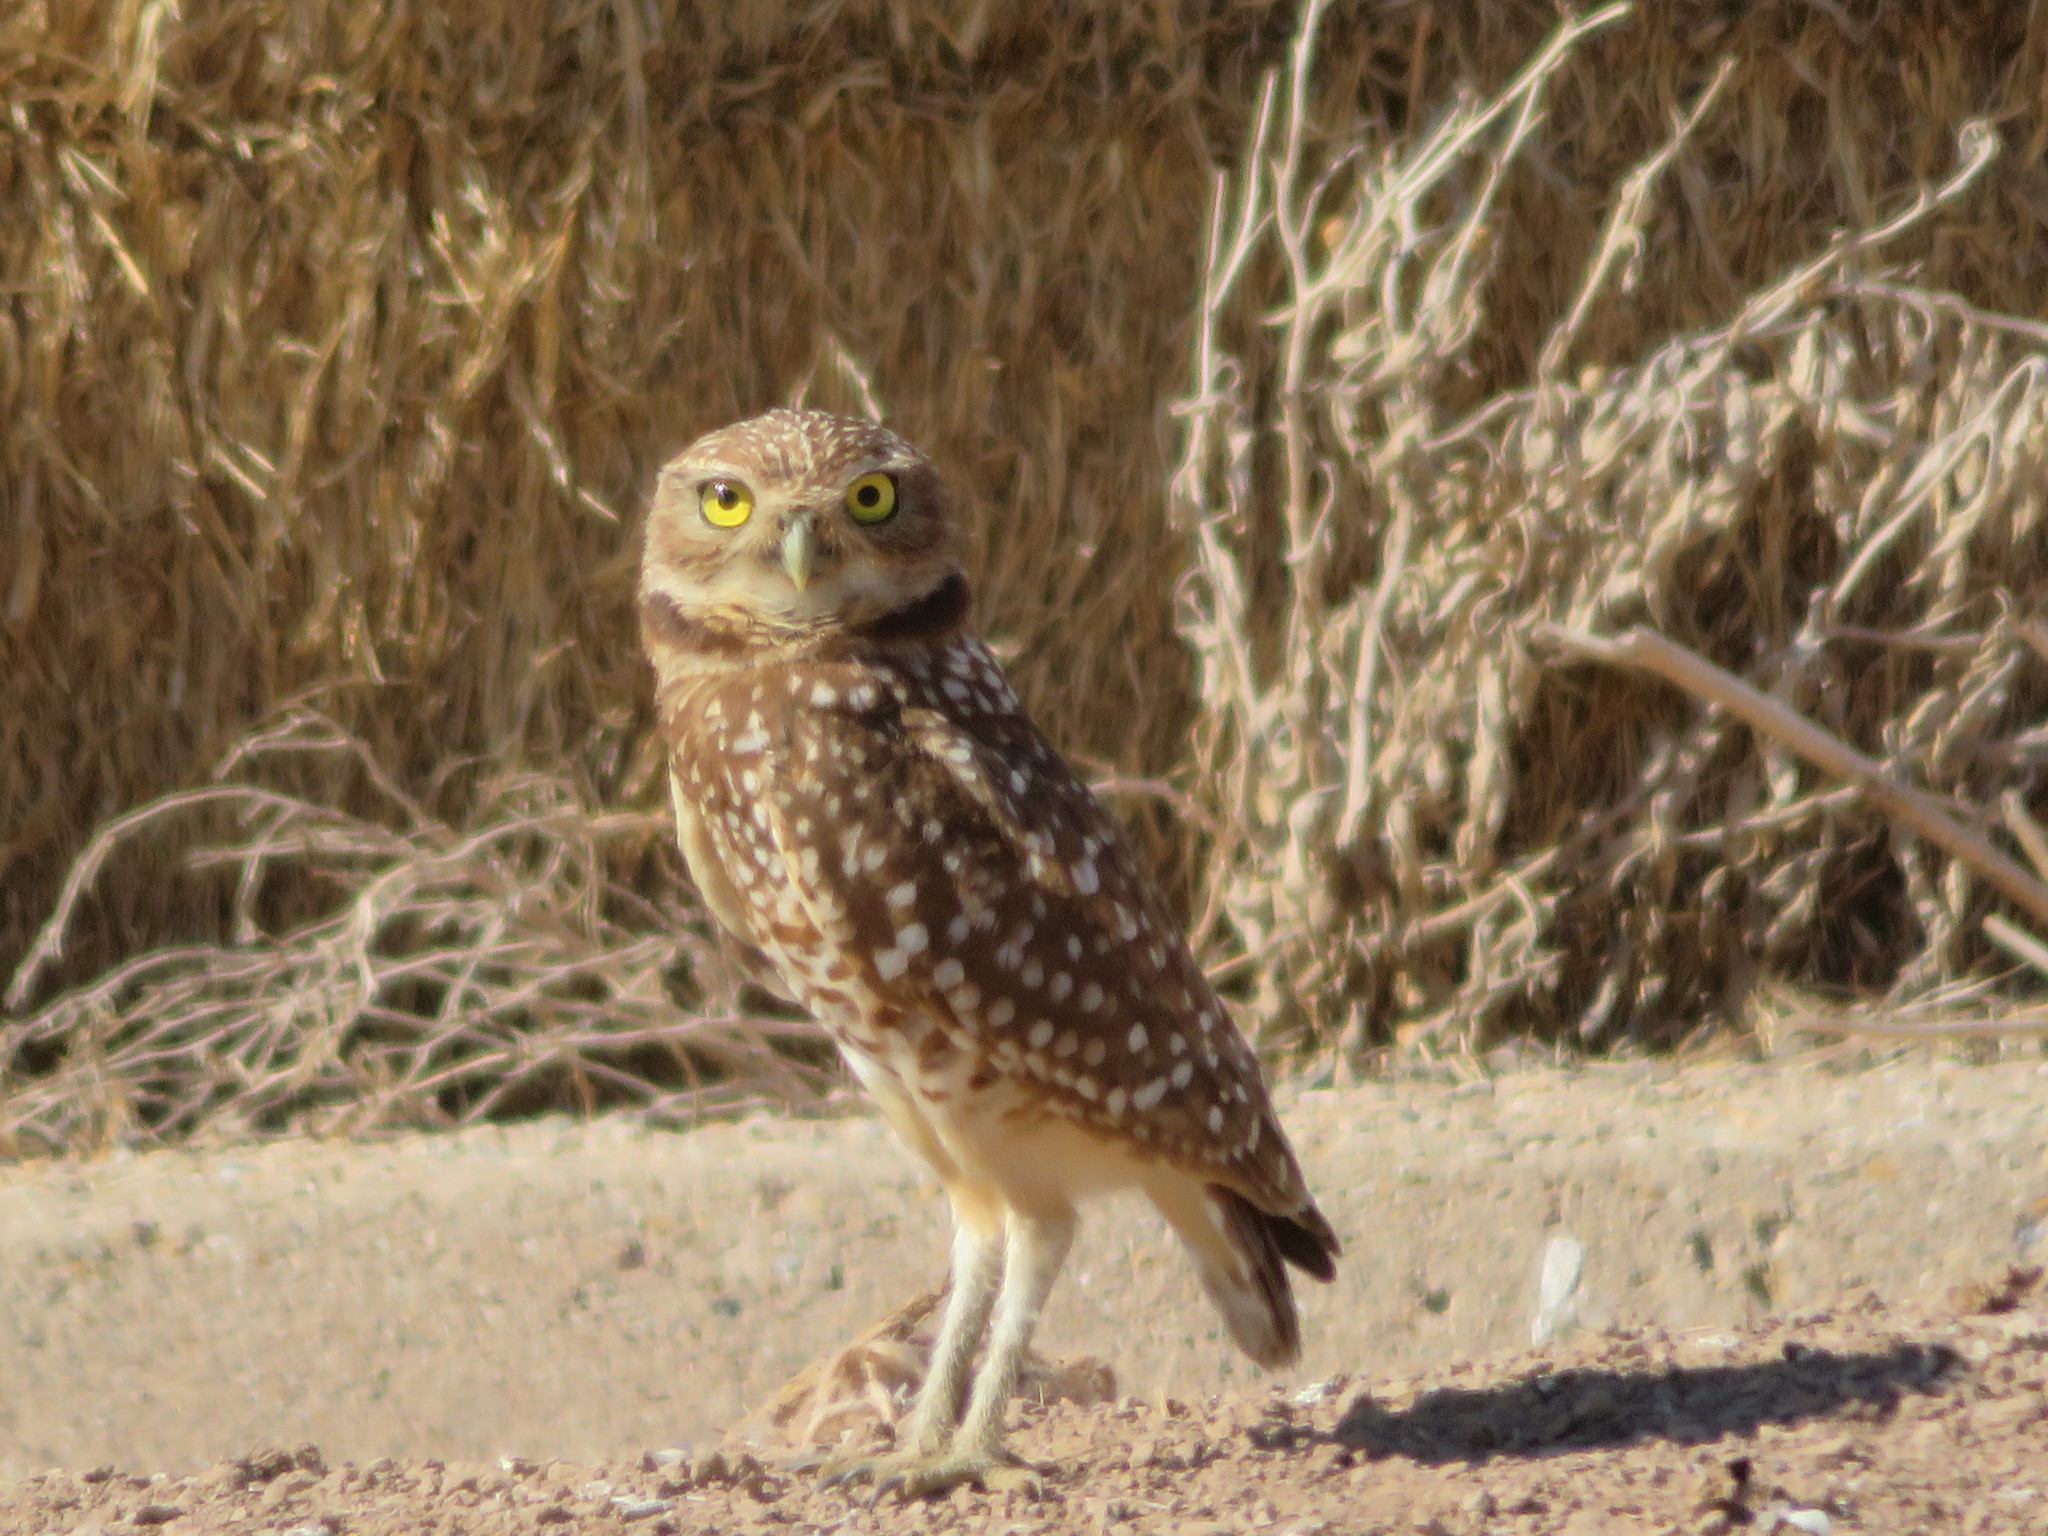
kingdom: Animalia
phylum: Chordata
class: Aves
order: Strigiformes
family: Strigidae
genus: Athene
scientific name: Athene cunicularia
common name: Burrowing owl
